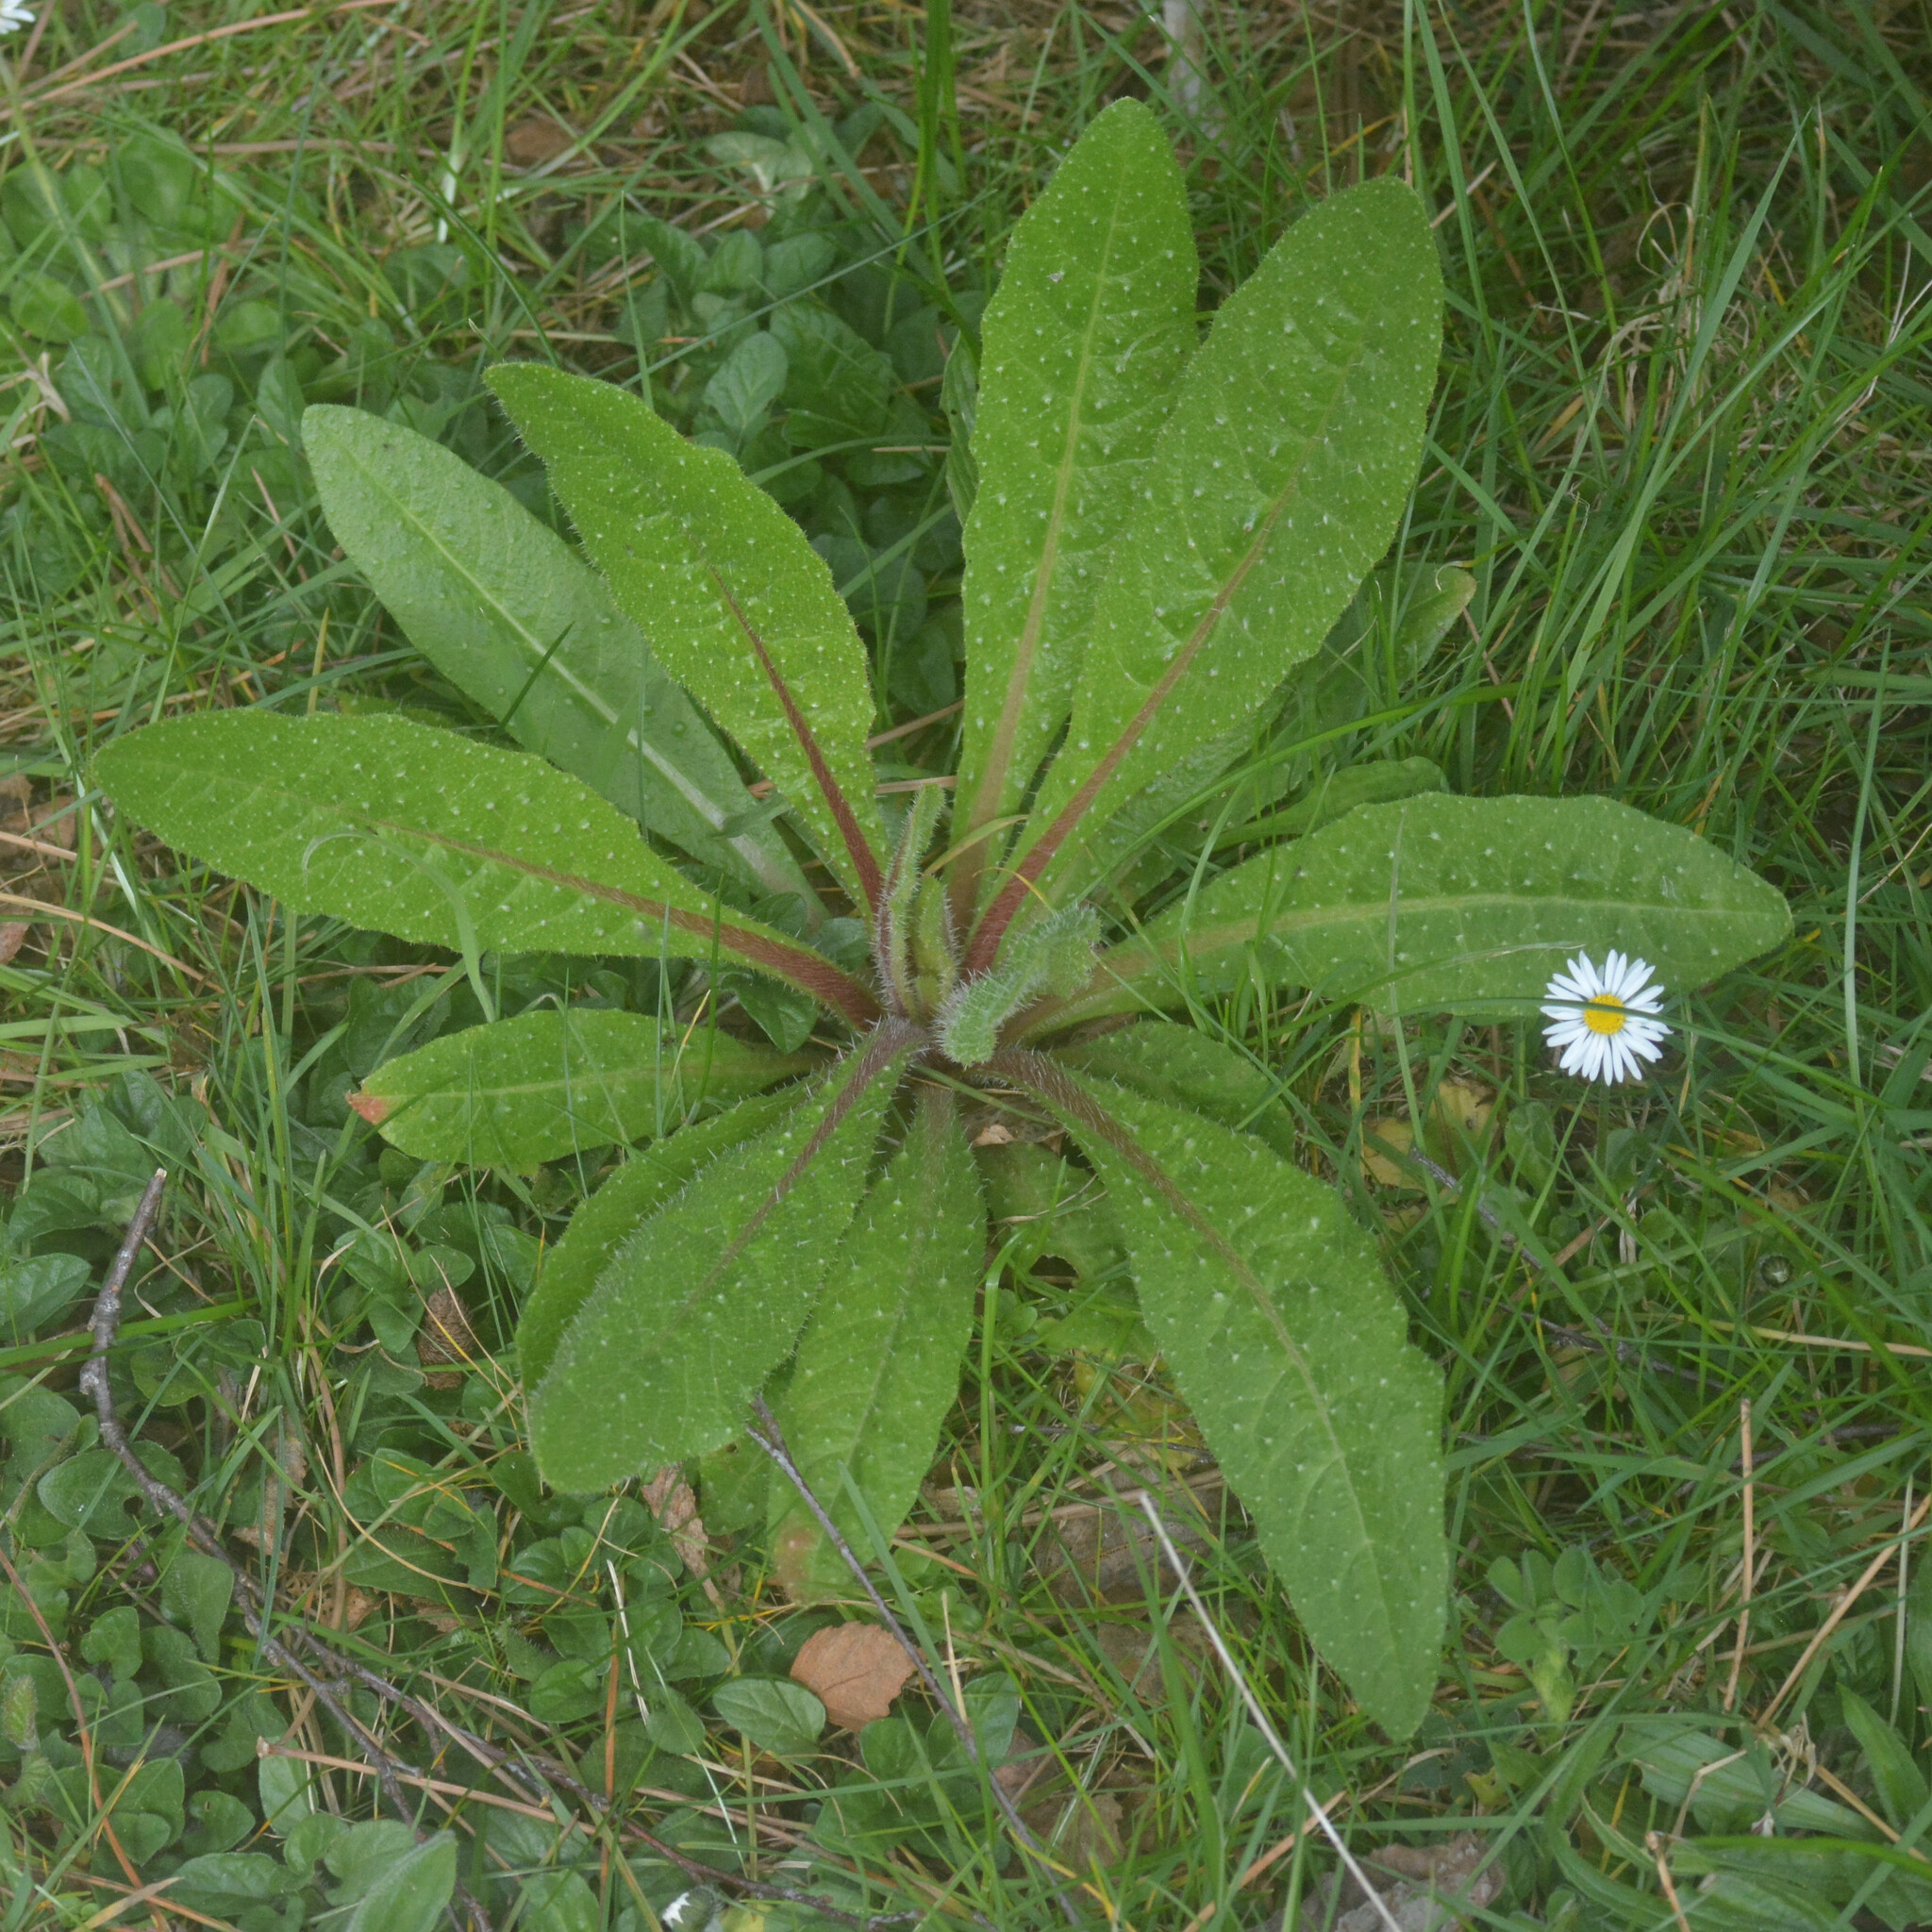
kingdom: Plantae
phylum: Tracheophyta
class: Magnoliopsida
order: Asterales
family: Asteraceae
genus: Helminthotheca
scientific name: Helminthotheca echioides
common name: Ox-tongue
